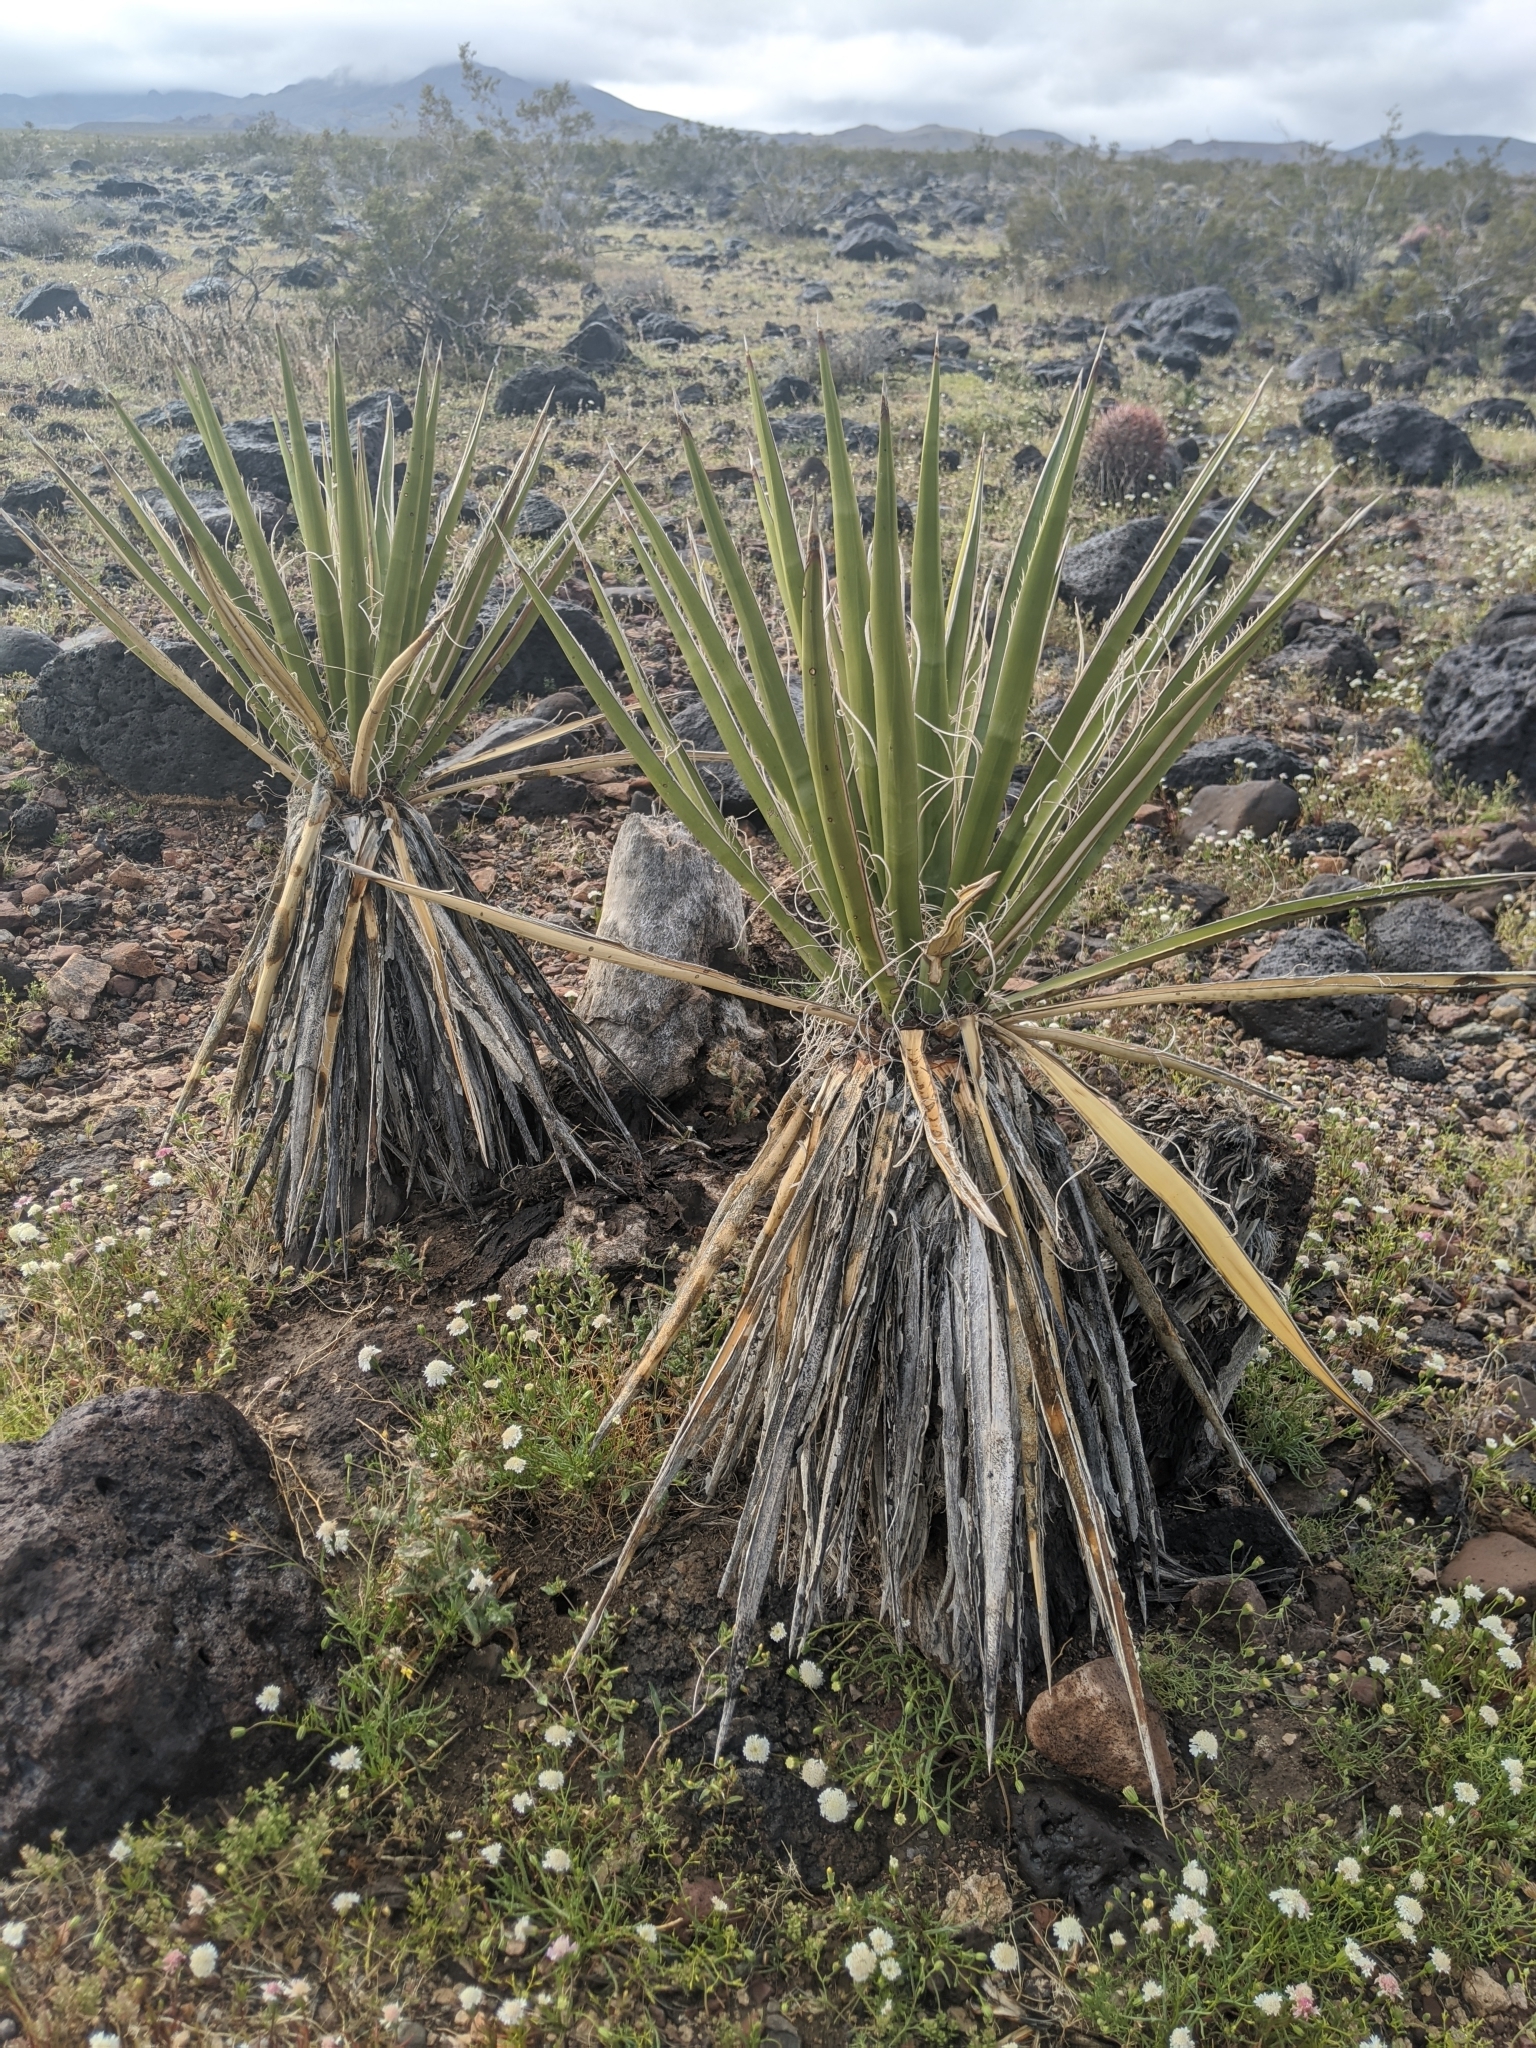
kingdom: Plantae
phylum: Tracheophyta
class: Liliopsida
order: Asparagales
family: Asparagaceae
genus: Yucca
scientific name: Yucca schidigera
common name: Mojave yucca
